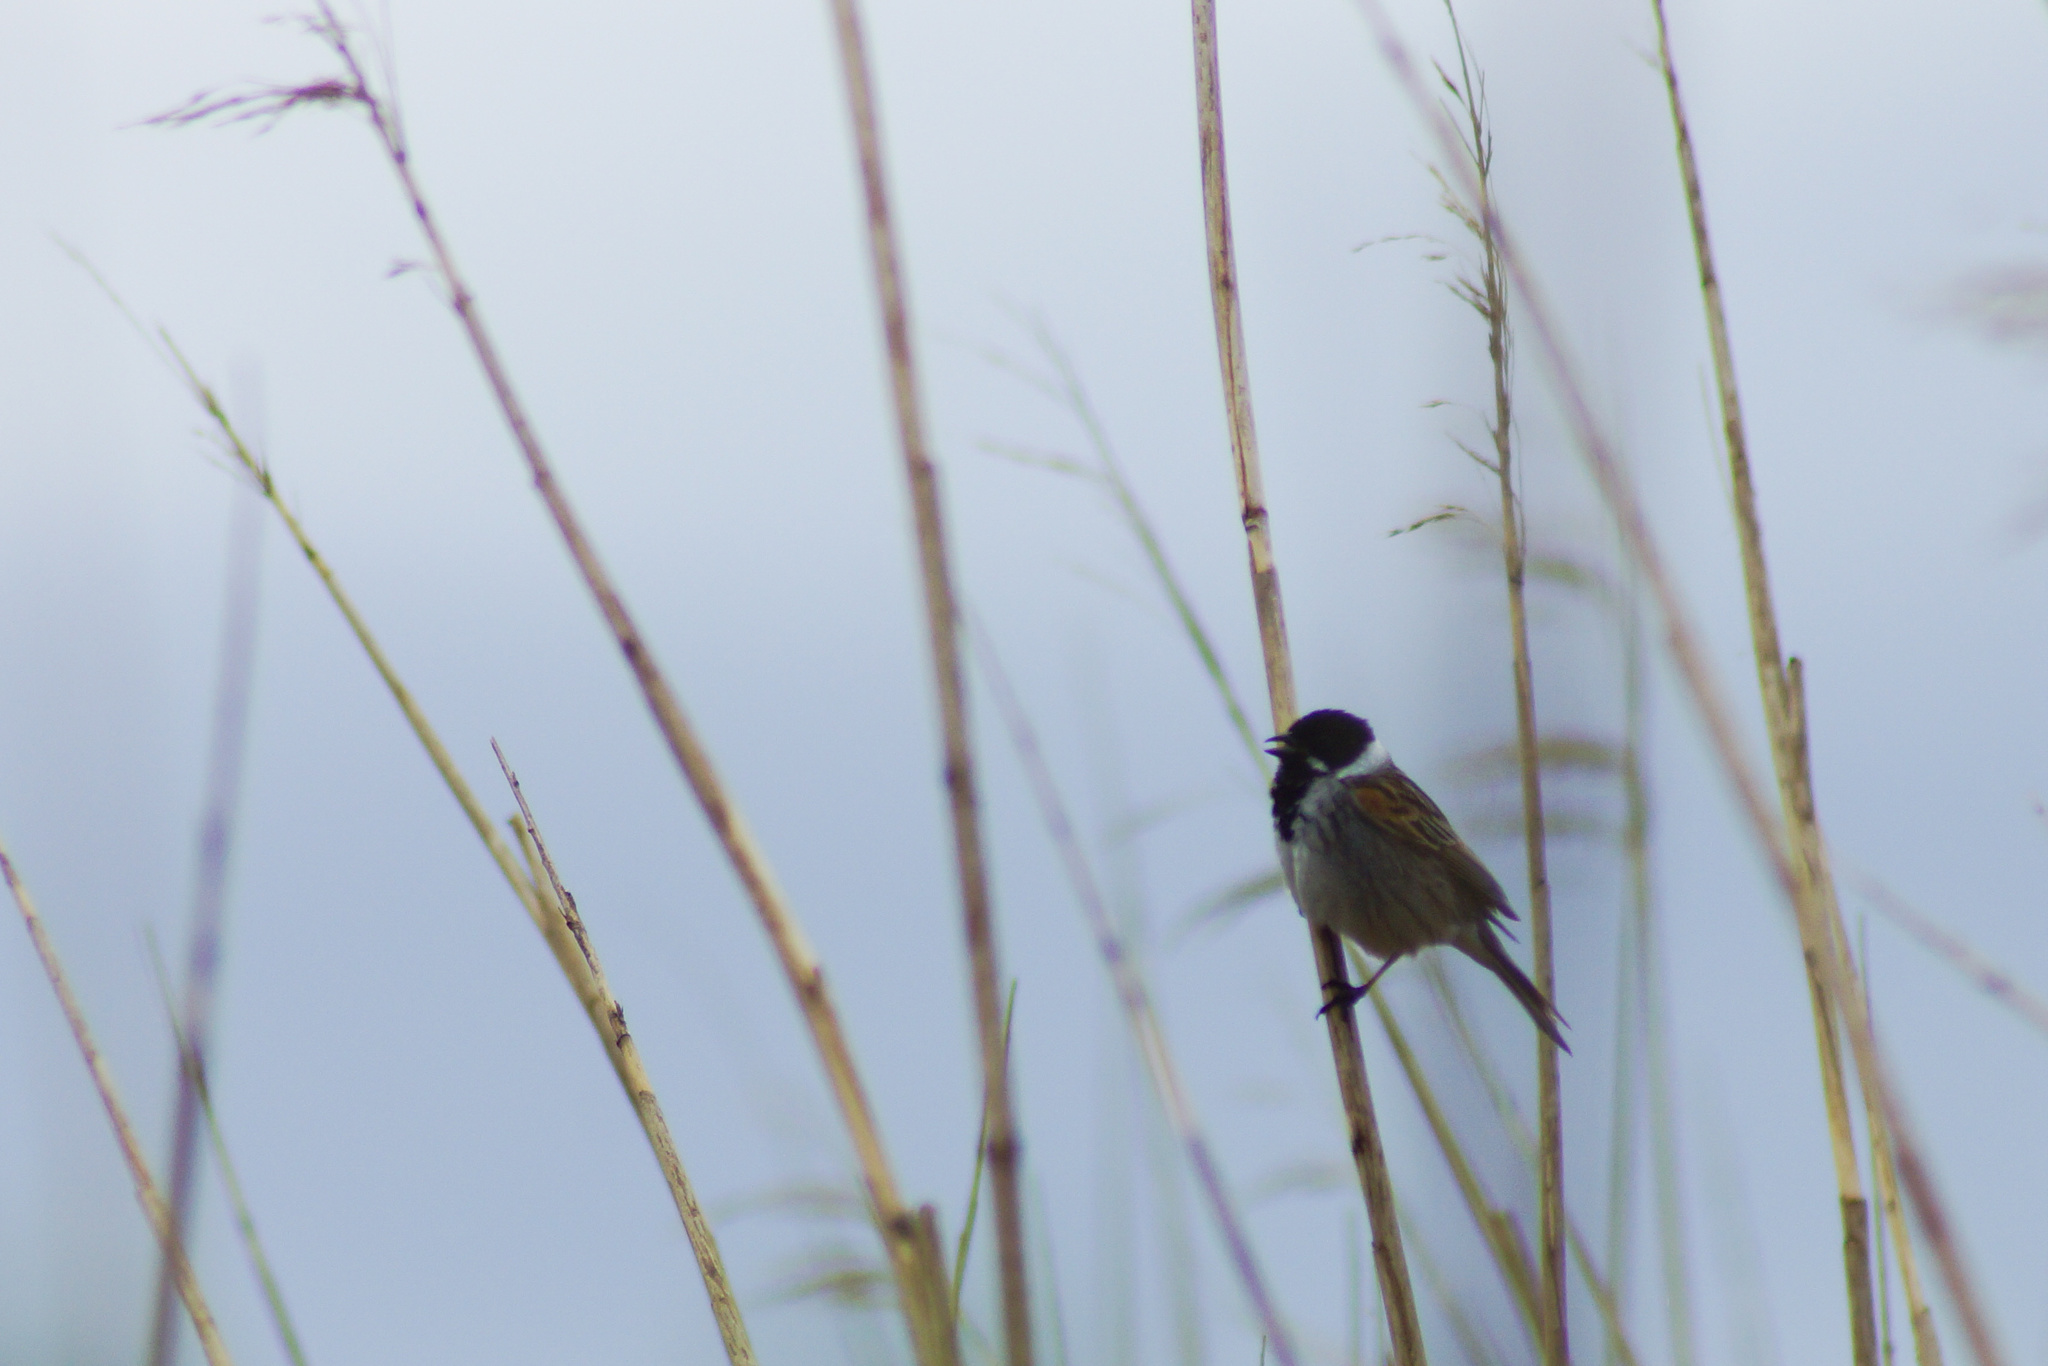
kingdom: Animalia
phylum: Chordata
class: Aves
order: Passeriformes
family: Emberizidae
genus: Emberiza
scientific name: Emberiza schoeniclus
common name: Reed bunting
